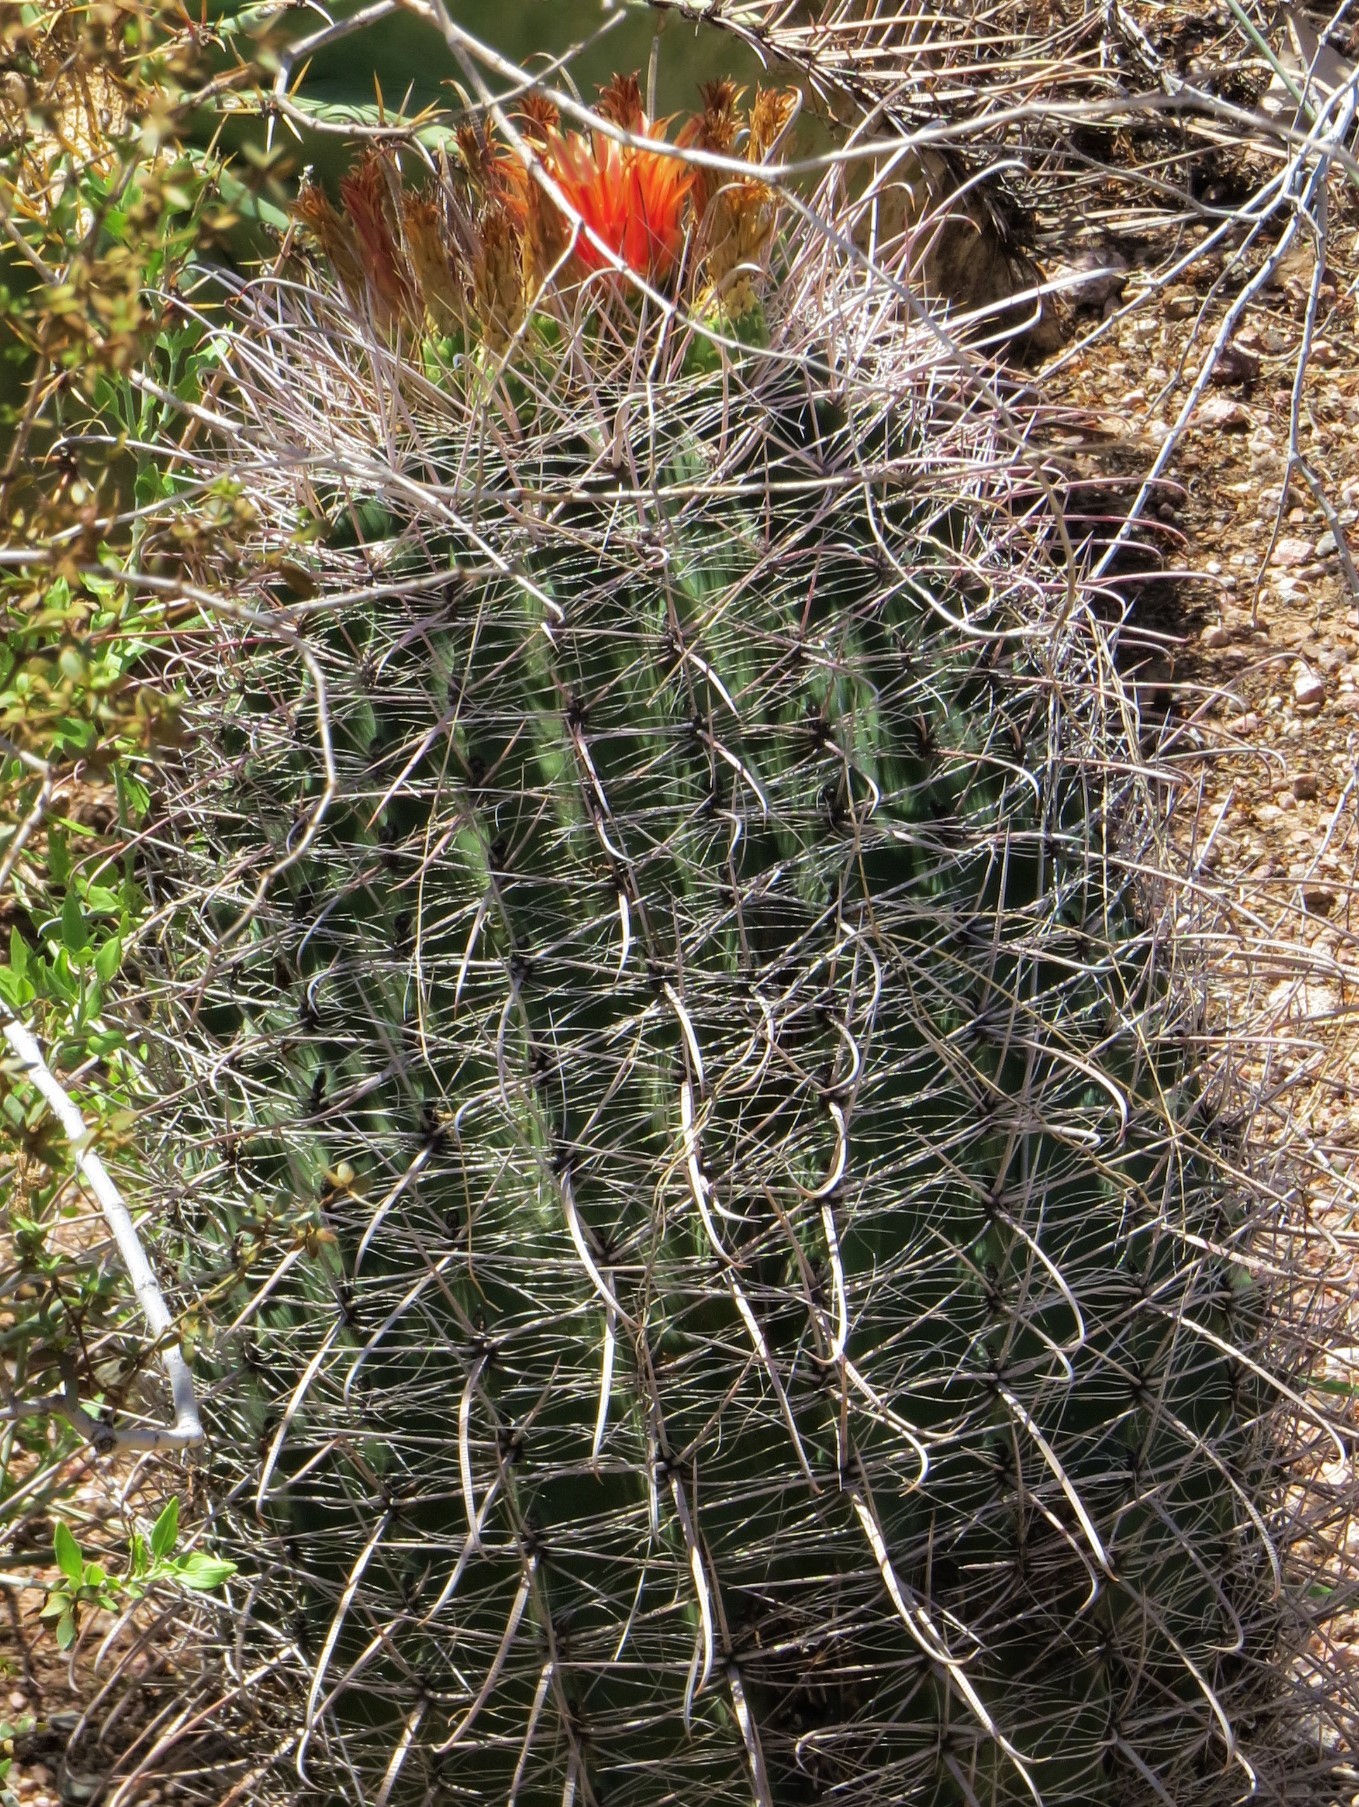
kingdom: Plantae
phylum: Tracheophyta
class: Magnoliopsida
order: Caryophyllales
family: Cactaceae
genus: Ferocactus
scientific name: Ferocactus wislizeni
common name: Candy barrel cactus
